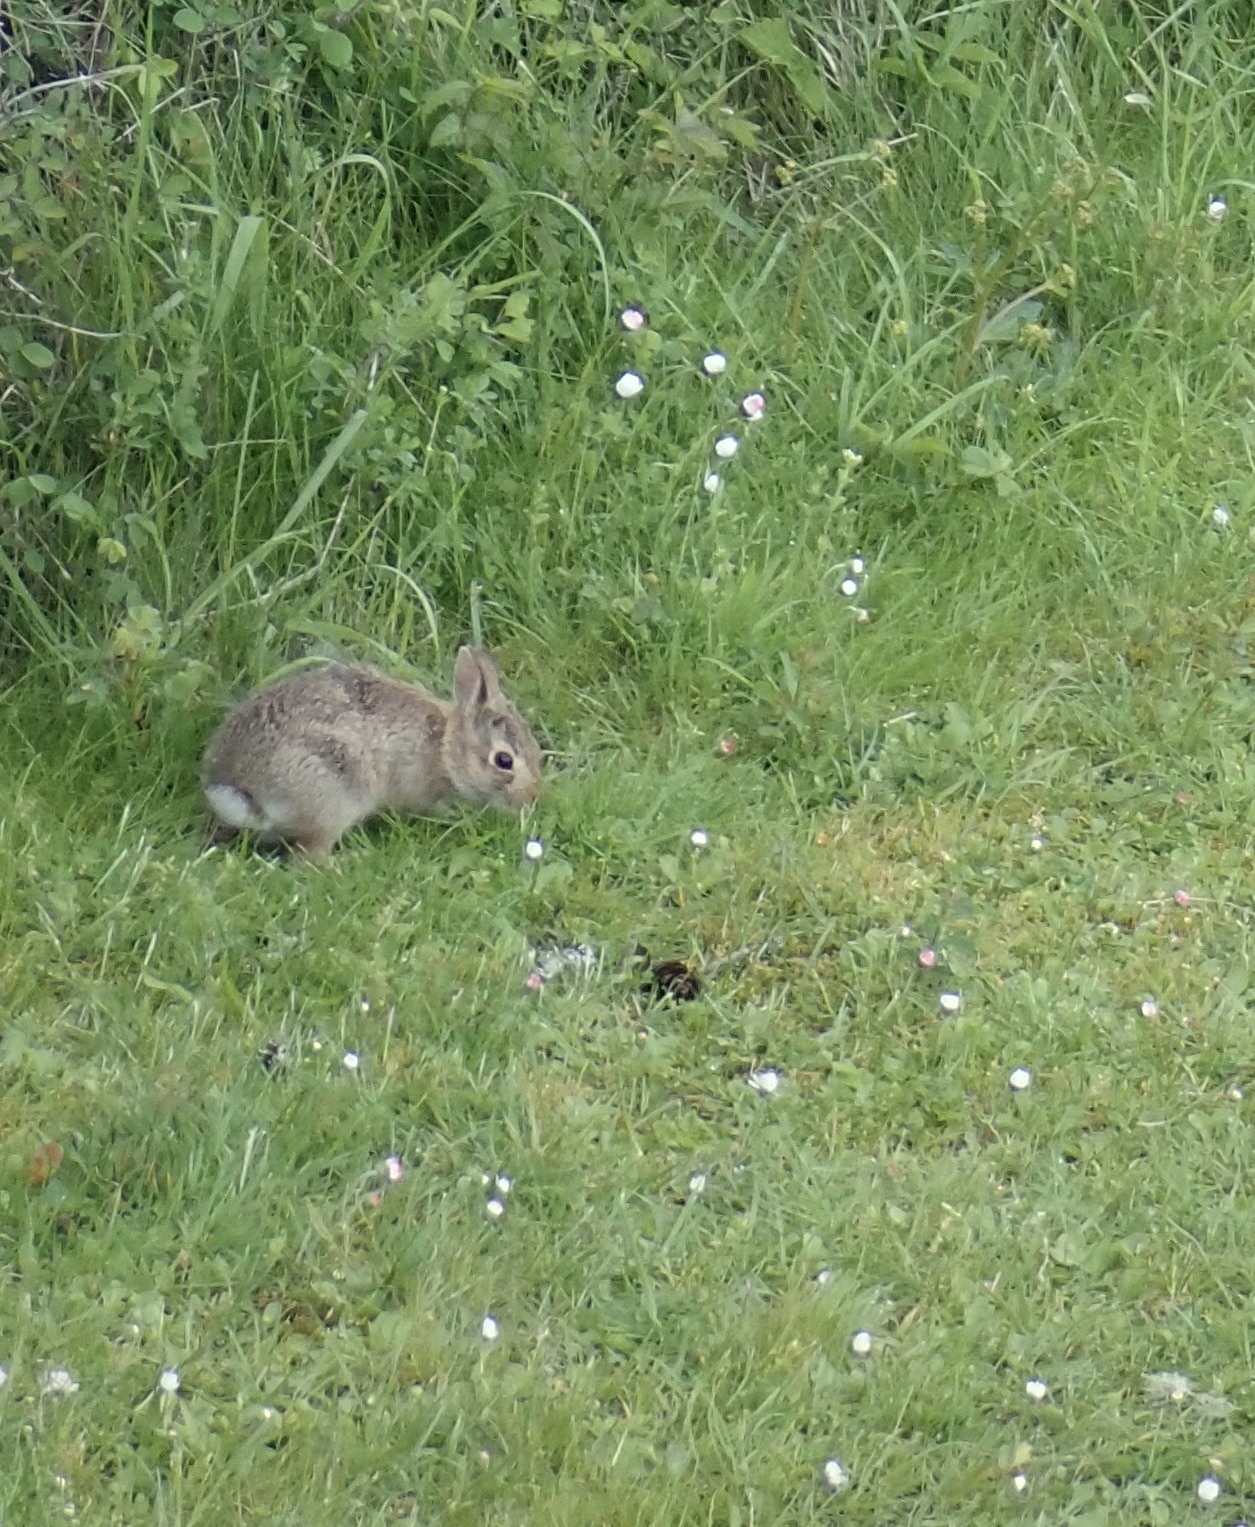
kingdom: Animalia
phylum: Chordata
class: Mammalia
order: Lagomorpha
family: Leporidae
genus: Sylvilagus
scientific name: Sylvilagus floridanus
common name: Eastern cottontail
